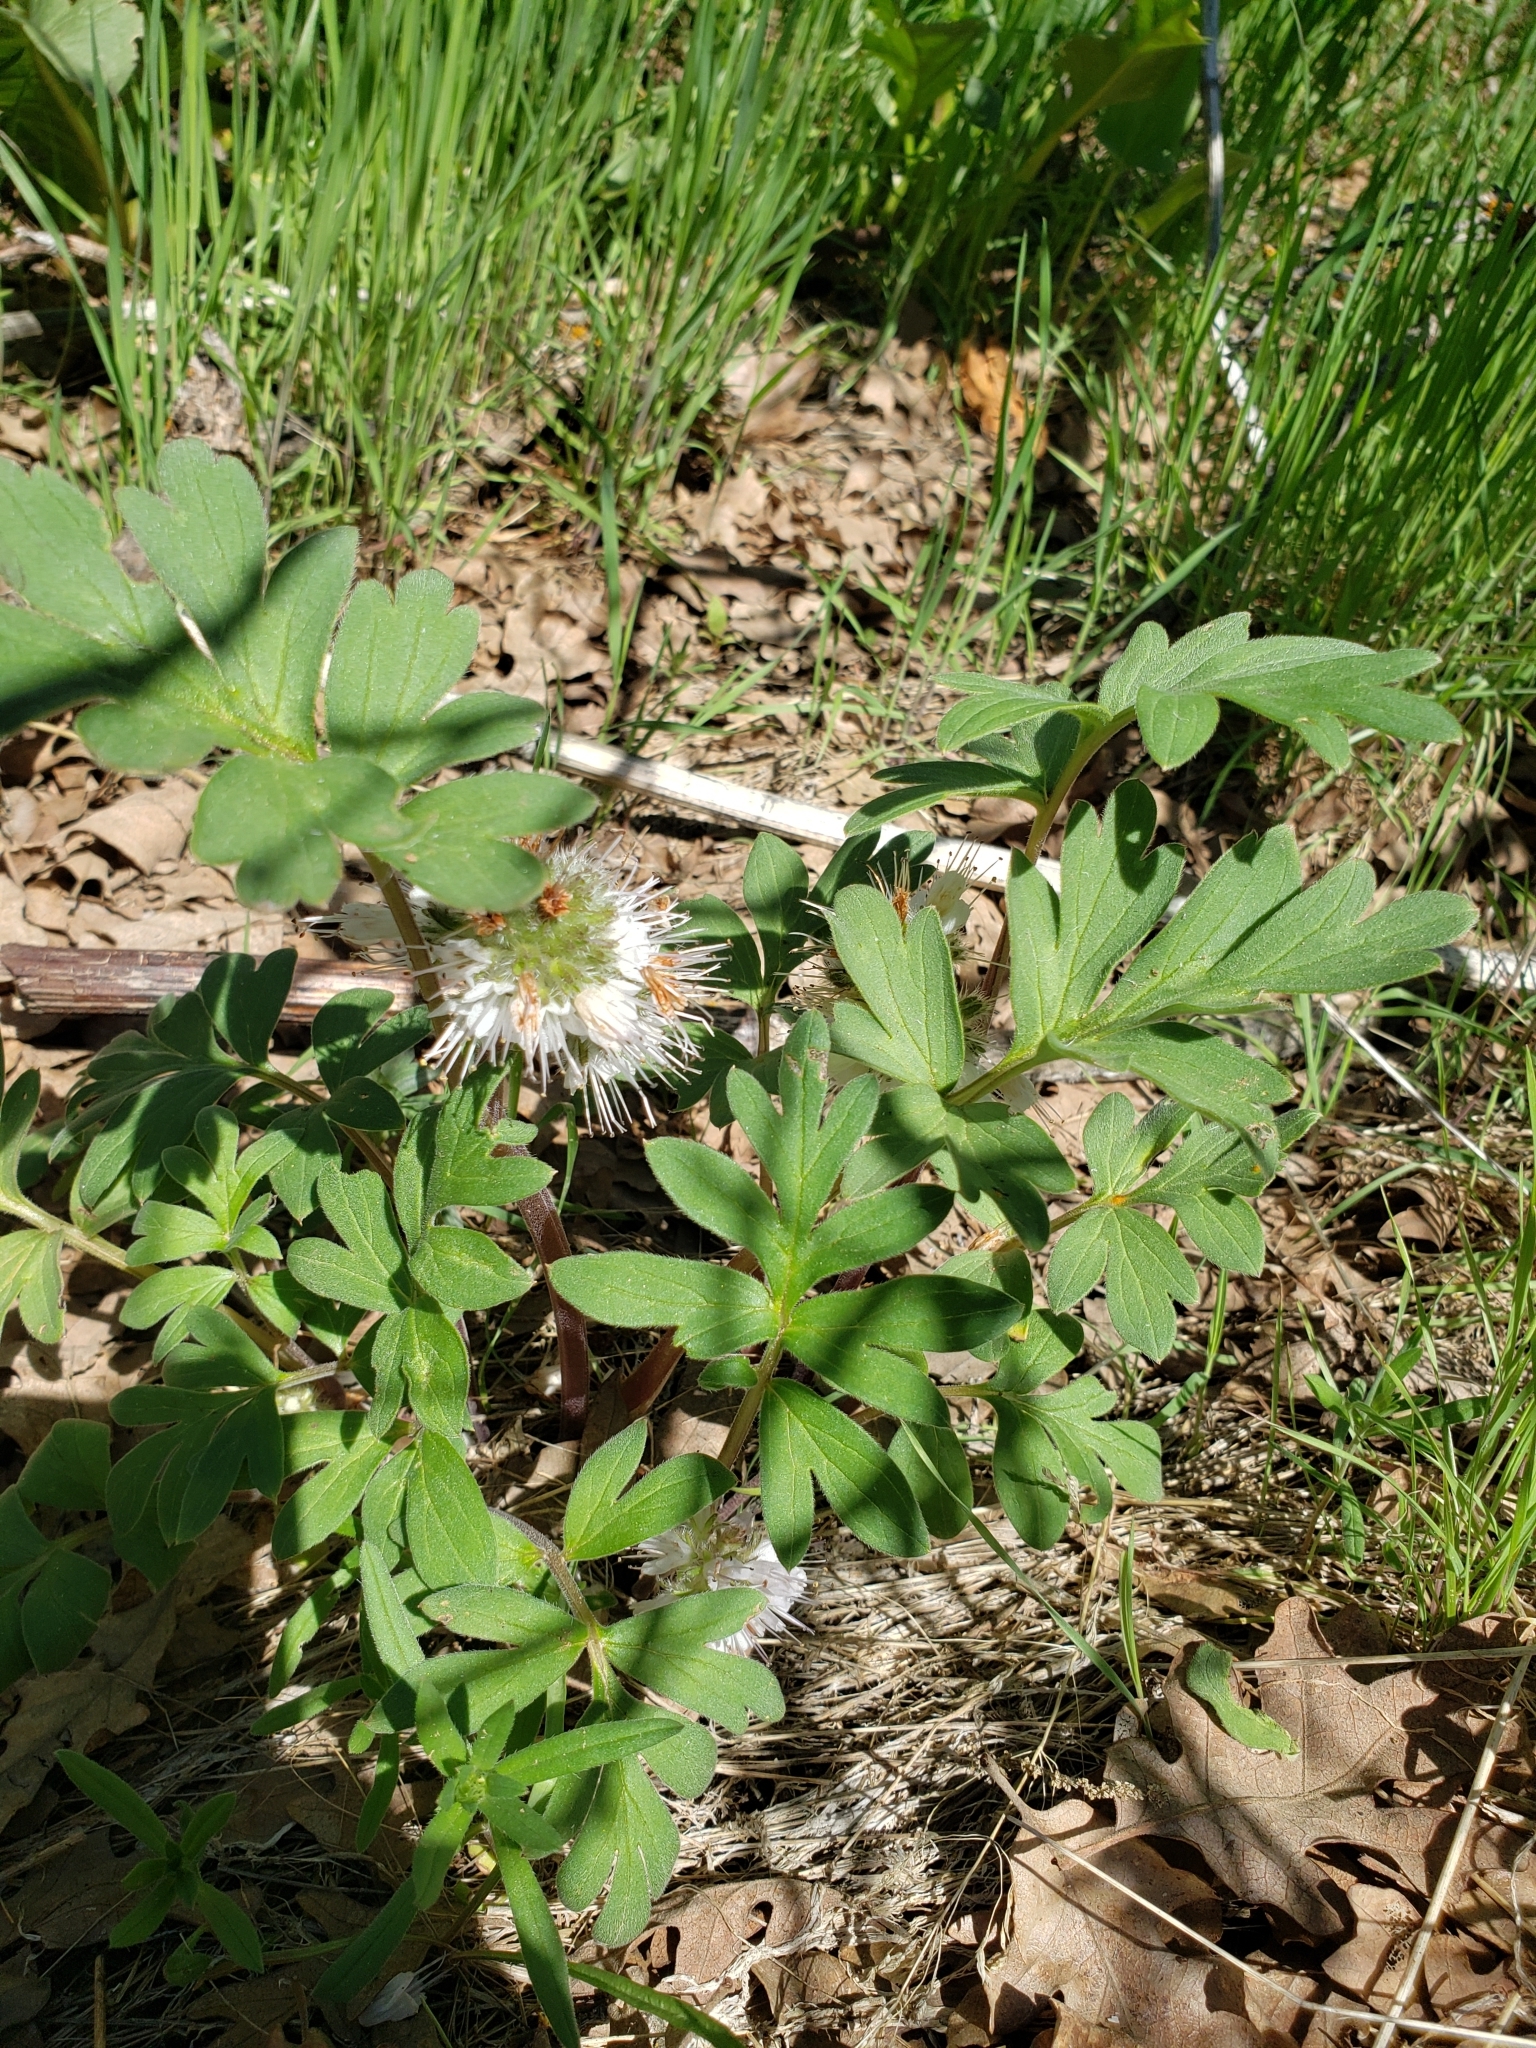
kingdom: Plantae
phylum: Tracheophyta
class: Magnoliopsida
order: Boraginales
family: Hydrophyllaceae
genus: Hydrophyllum
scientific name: Hydrophyllum capitatum
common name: Woollen-breeches
